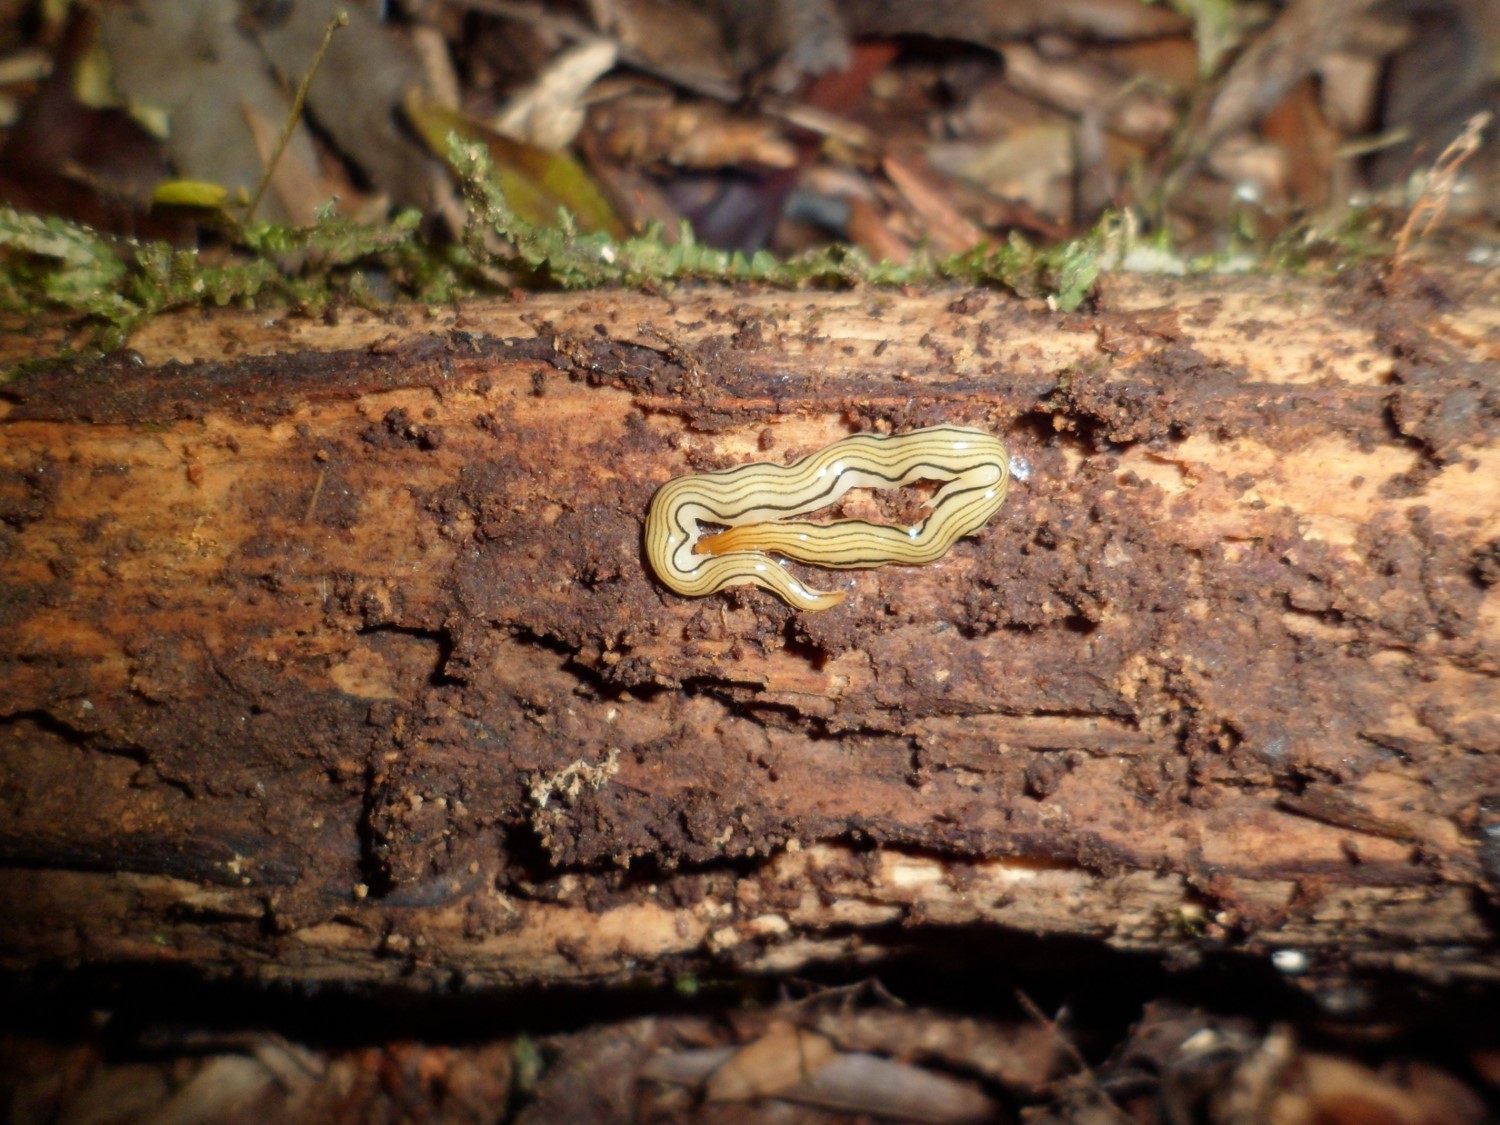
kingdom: Animalia
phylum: Platyhelminthes
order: Tricladida
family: Geoplanidae
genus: Luteostriata
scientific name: Luteostriata ernesti
